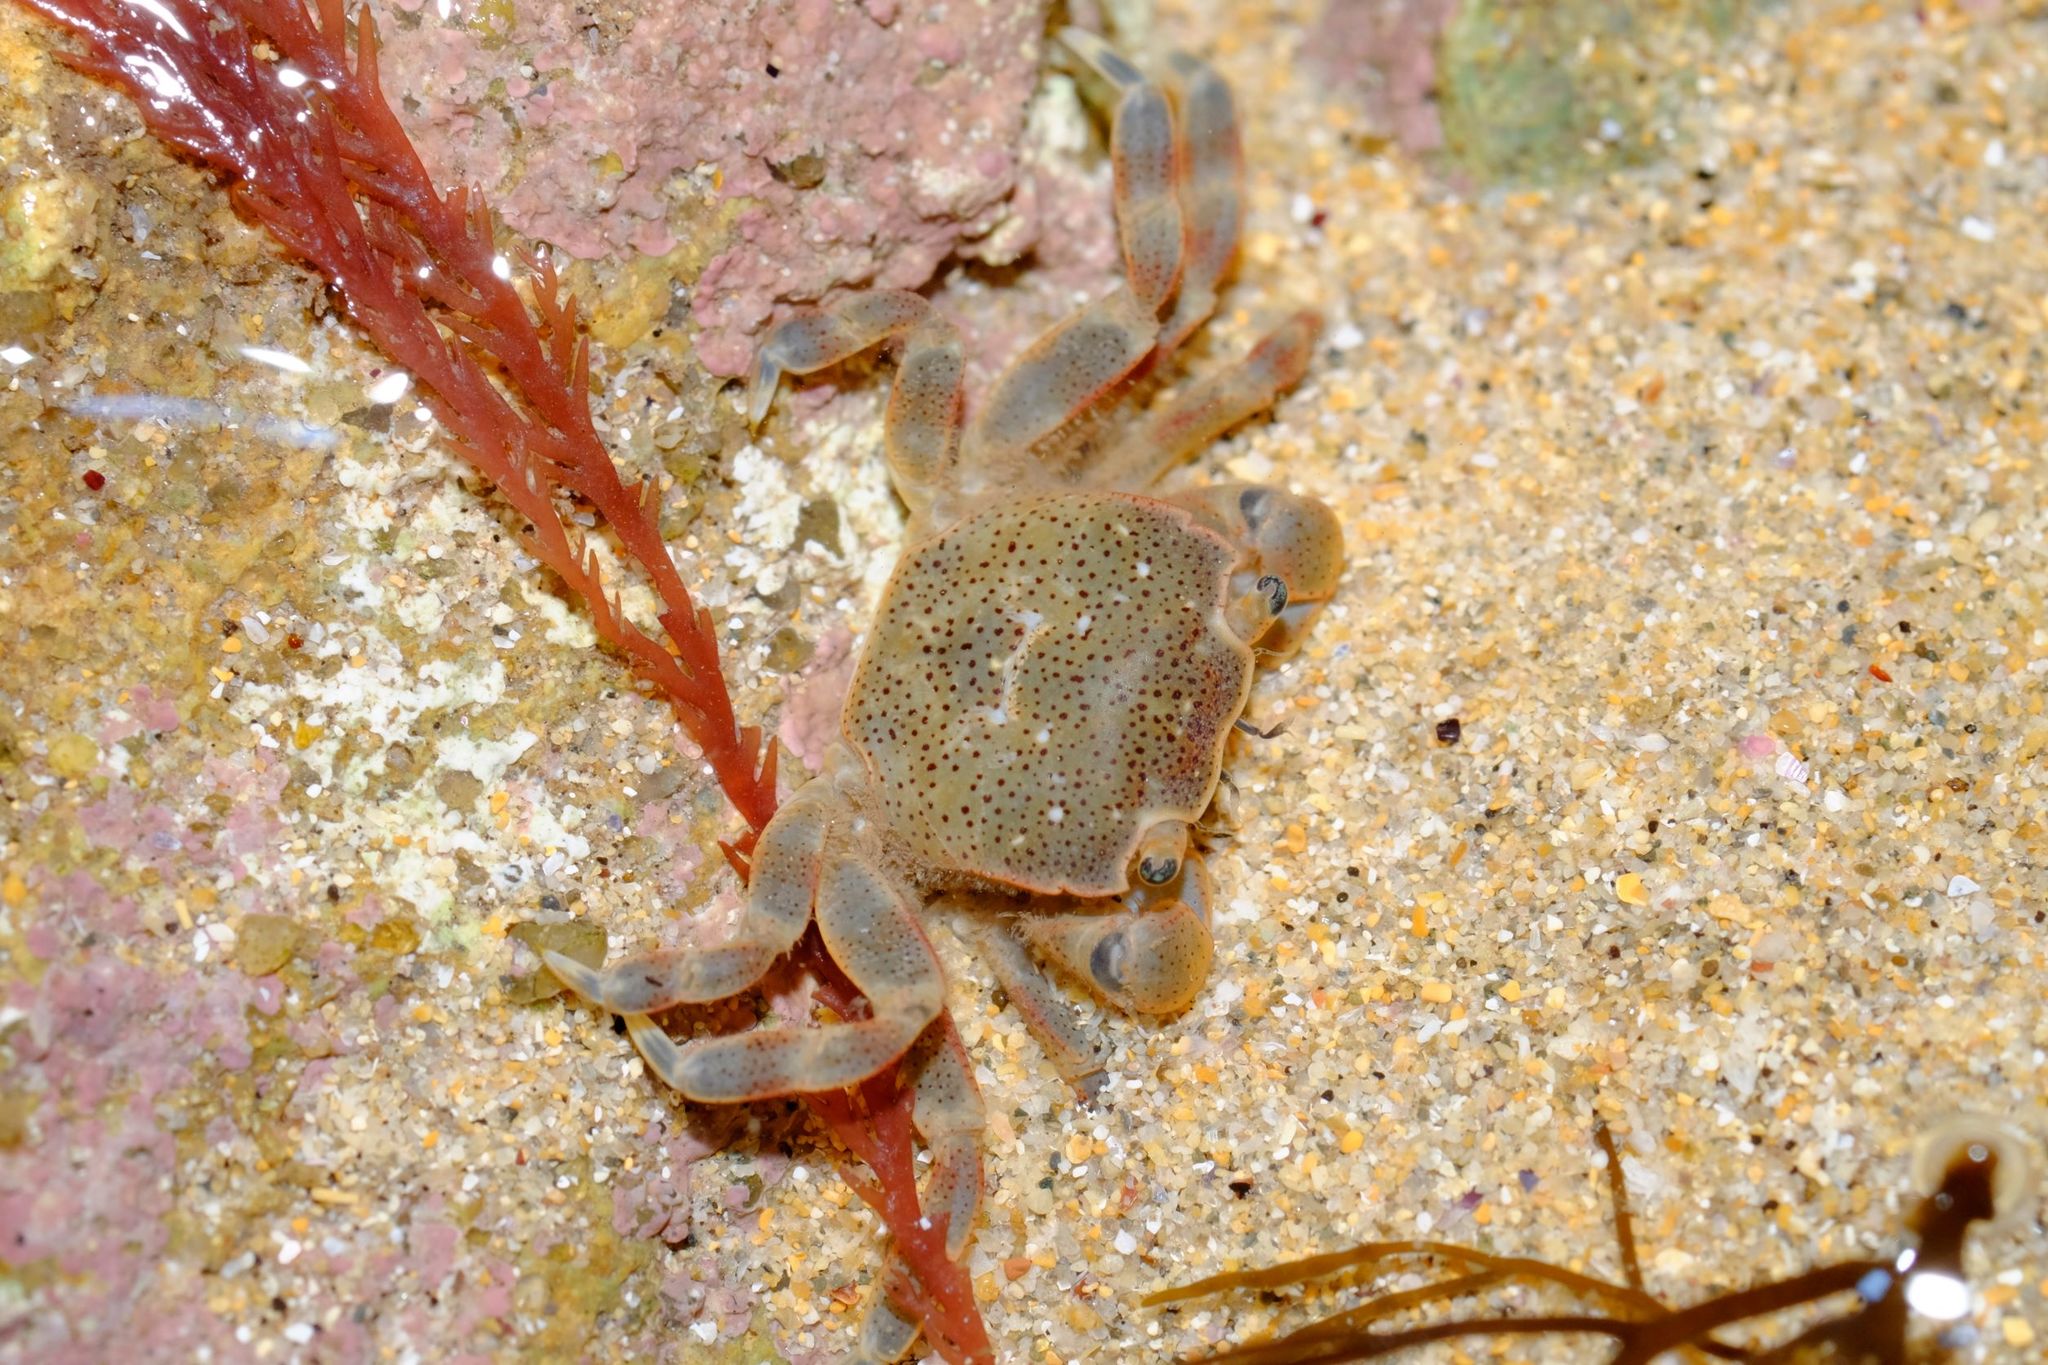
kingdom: Animalia
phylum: Arthropoda
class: Malacostraca
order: Decapoda
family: Varunidae
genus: Paragrapsus
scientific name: Paragrapsus quadridentatus
